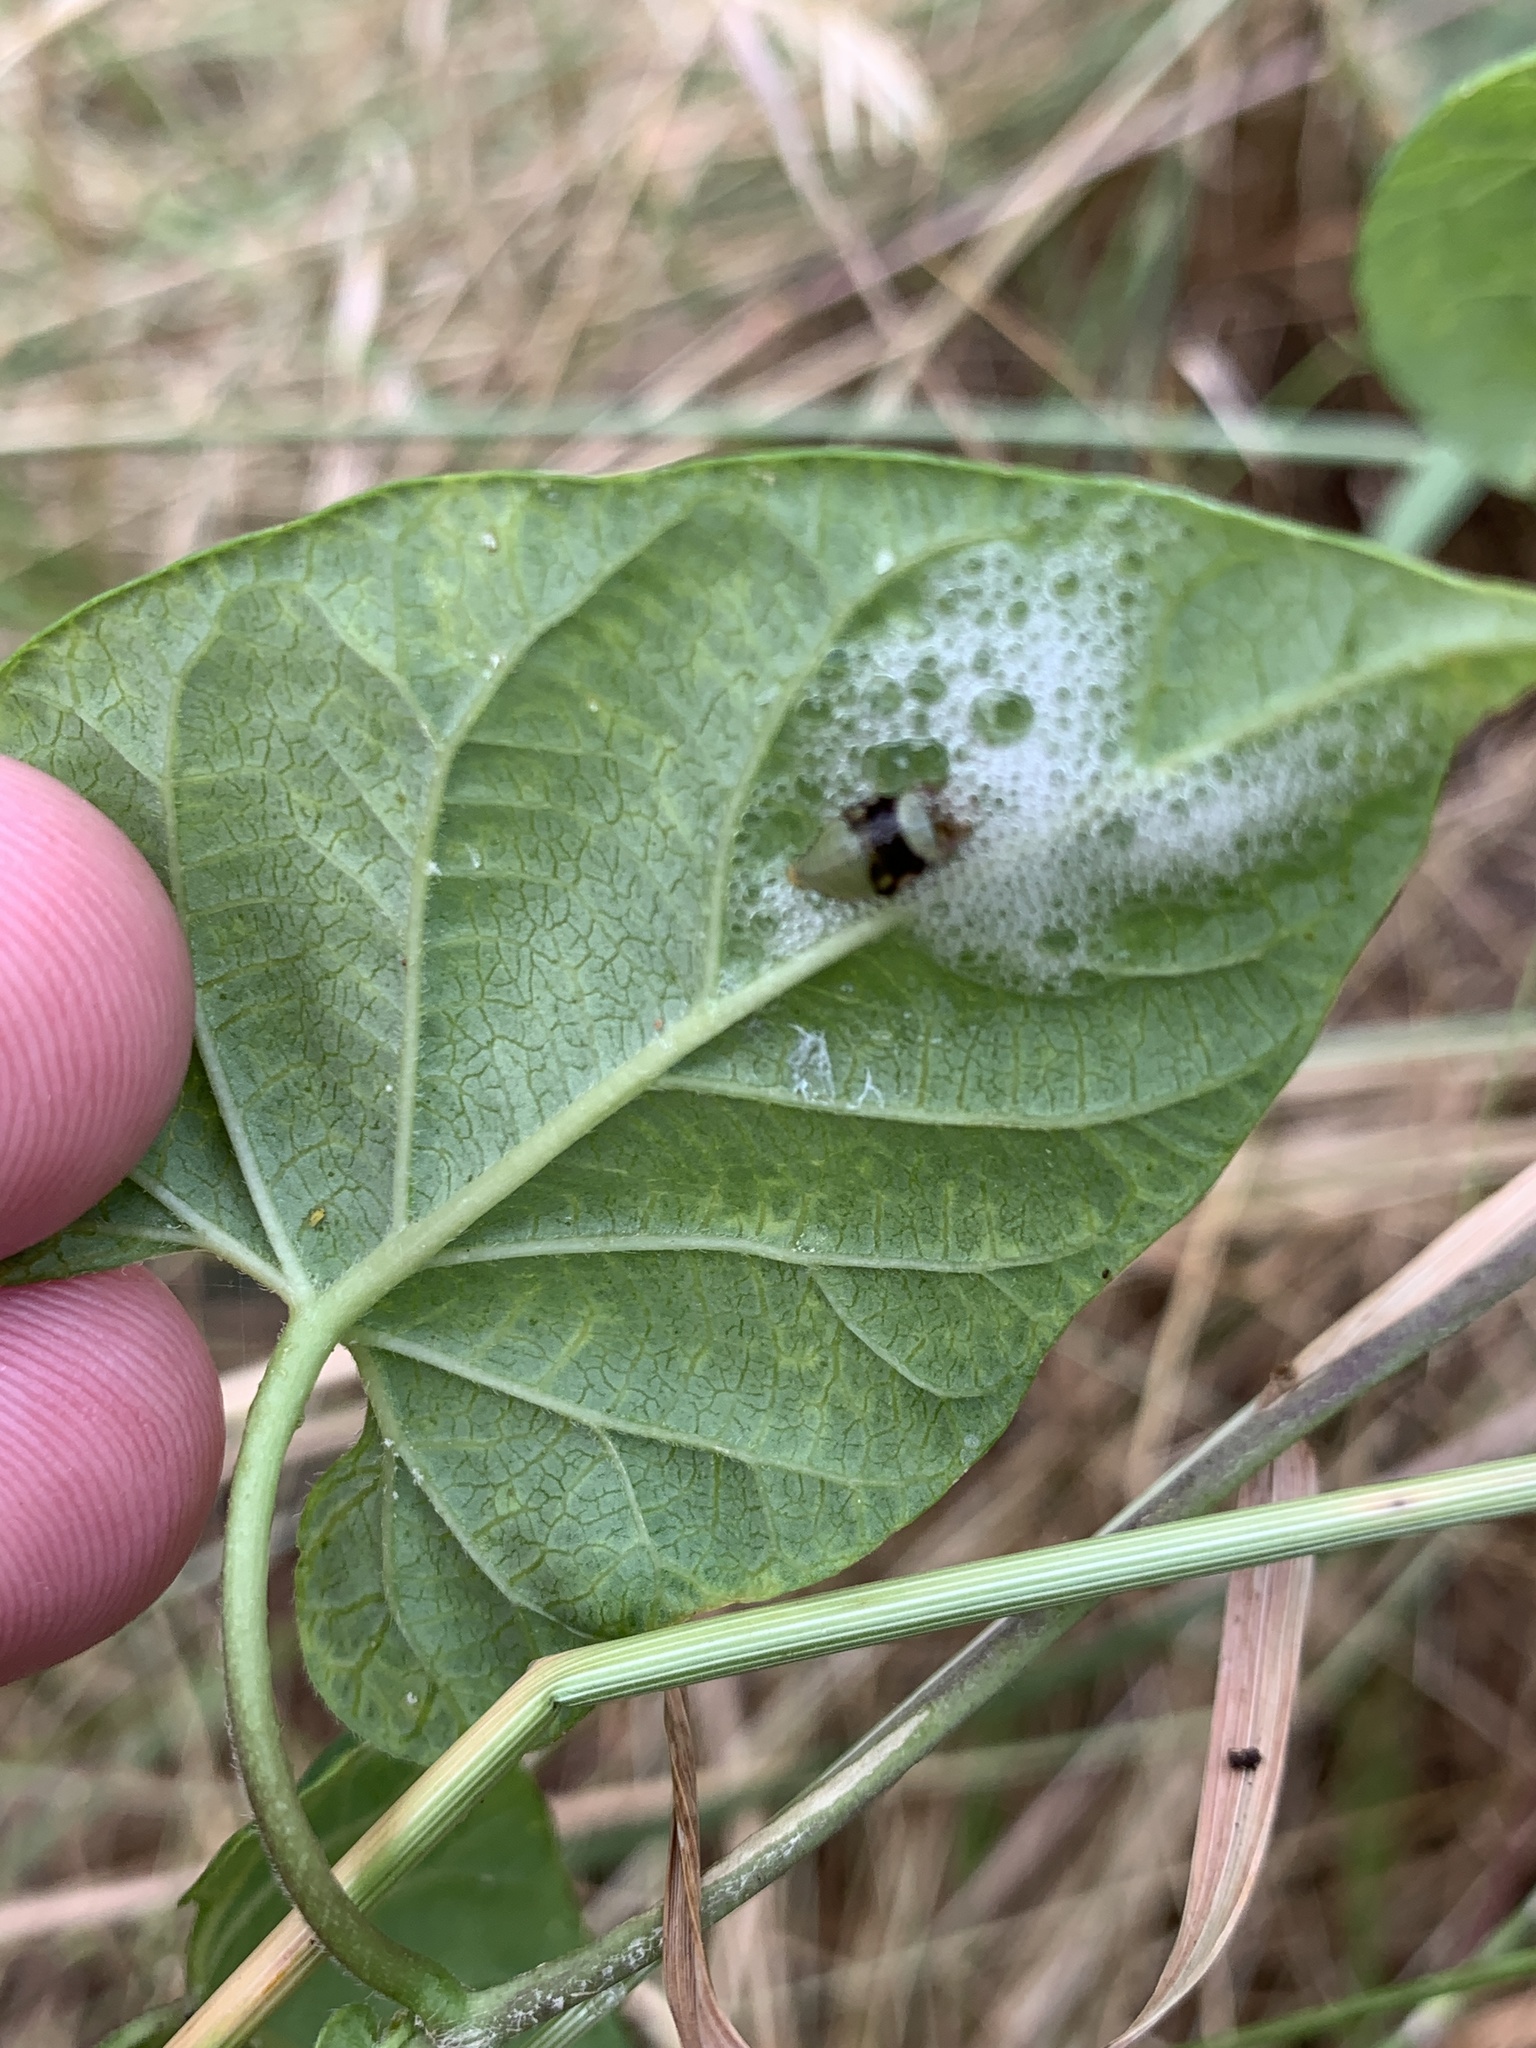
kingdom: Plantae
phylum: Tracheophyta
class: Magnoliopsida
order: Gentianales
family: Apocynaceae
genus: Dictyanthus
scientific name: Dictyanthus reticulatus
